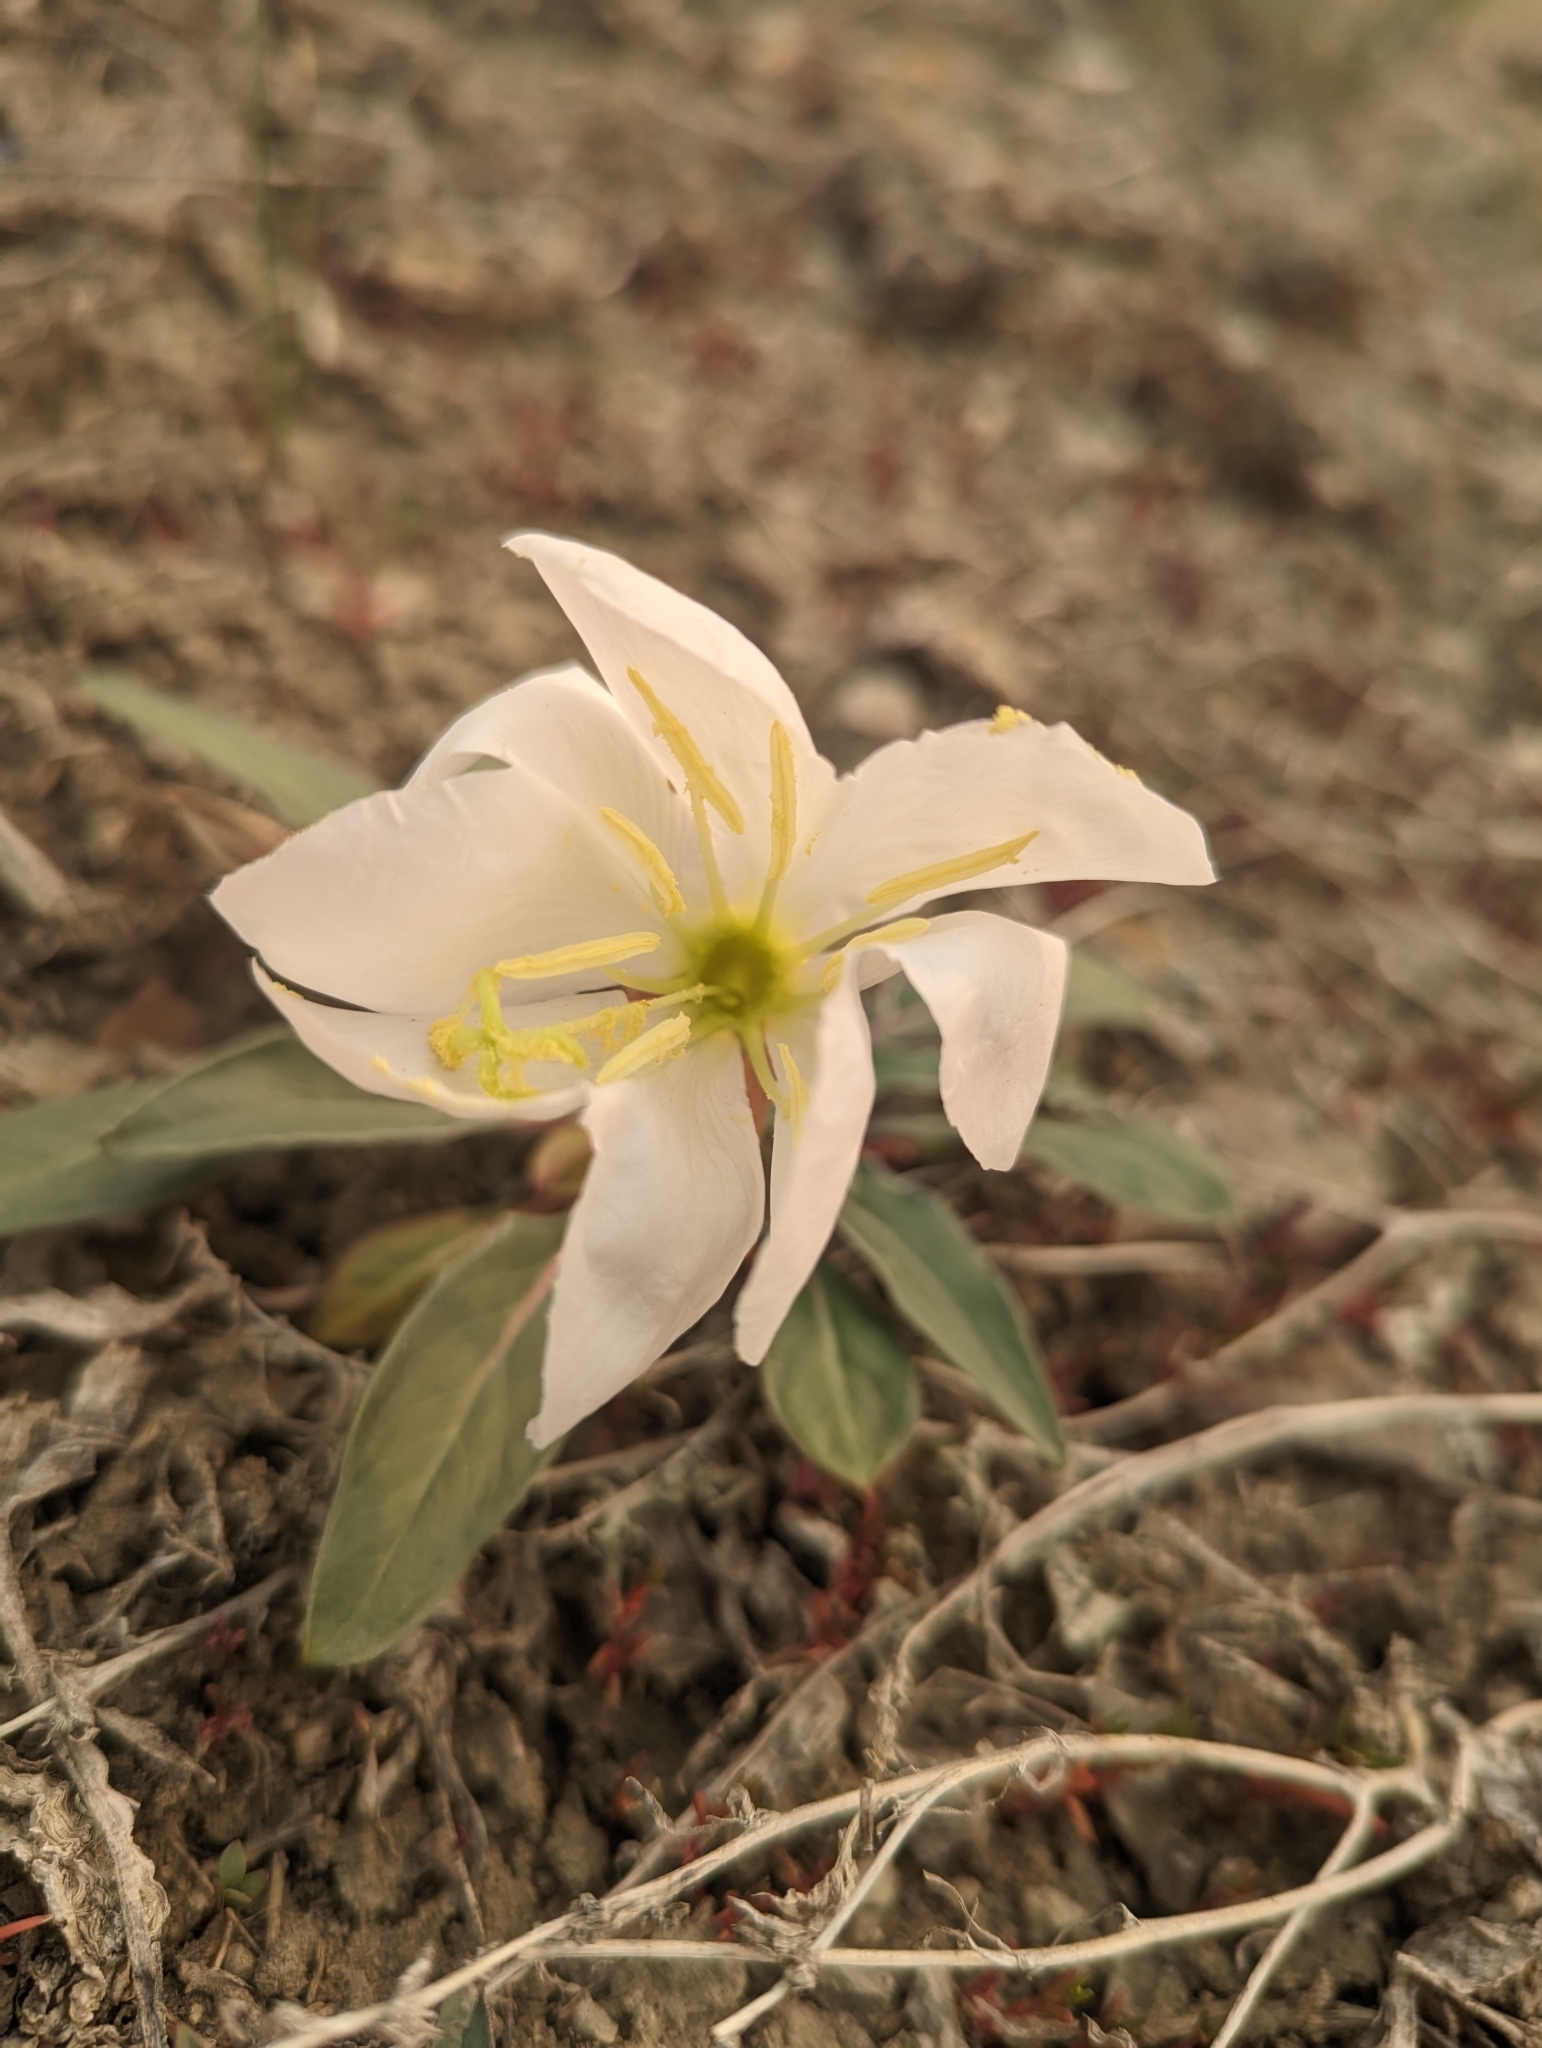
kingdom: Plantae
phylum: Tracheophyta
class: Magnoliopsida
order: Myrtales
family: Onagraceae
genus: Oenothera
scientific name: Oenothera cespitosa
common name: Tufted evening-primrose
